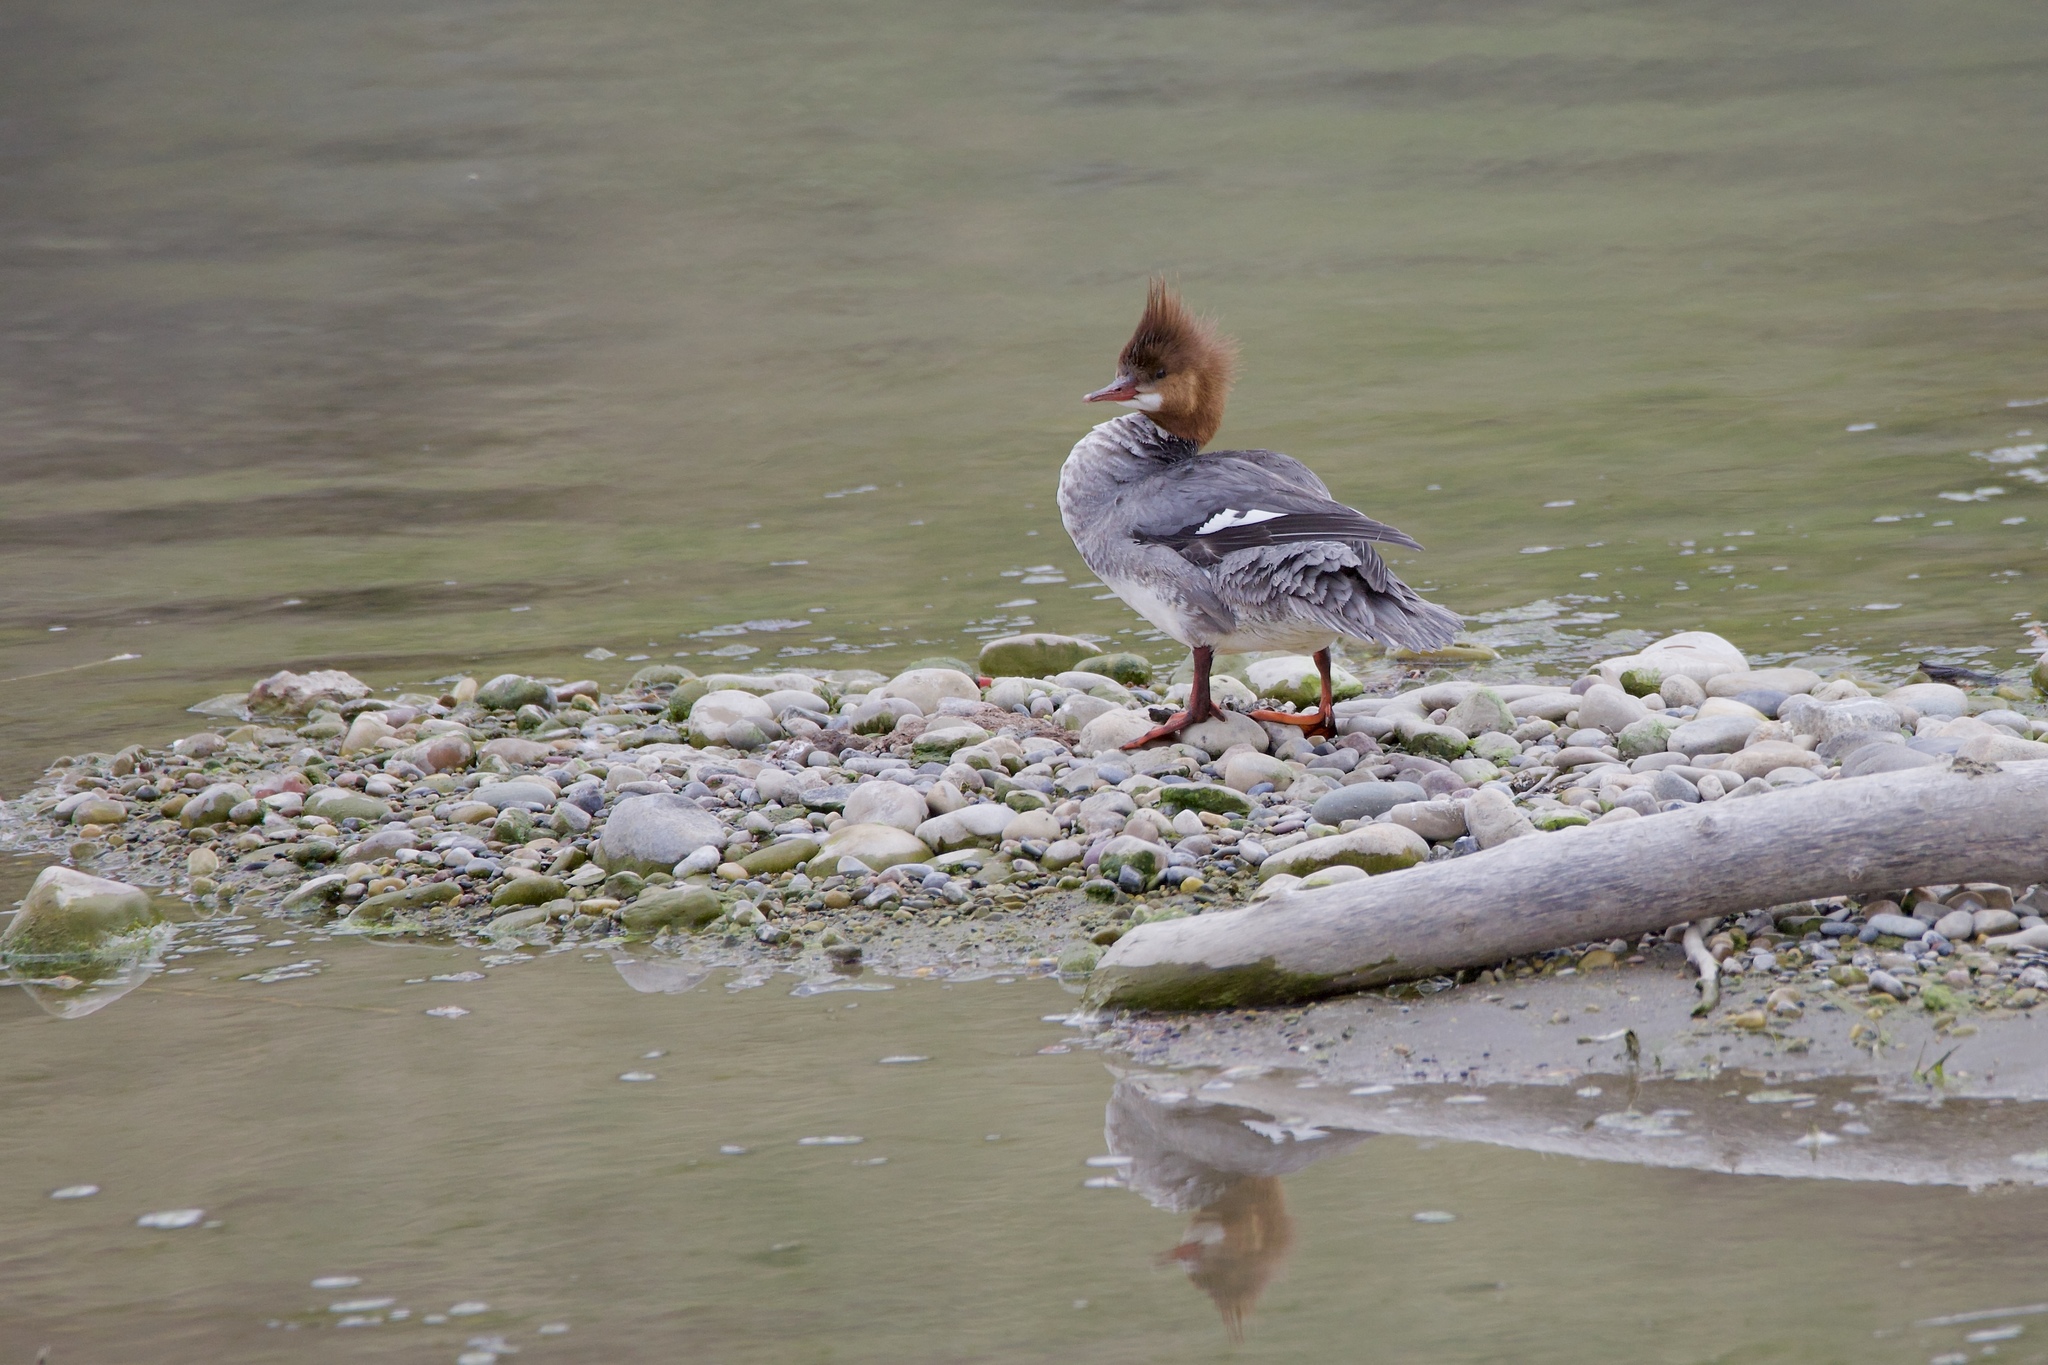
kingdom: Animalia
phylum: Chordata
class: Aves
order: Anseriformes
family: Anatidae
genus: Mergus
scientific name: Mergus merganser
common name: Common merganser
